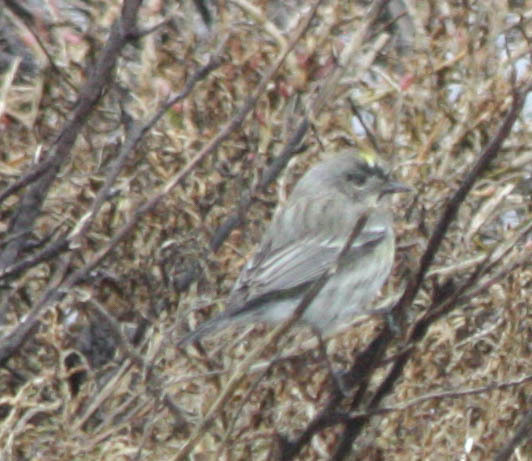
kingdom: Animalia
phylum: Chordata
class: Aves
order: Passeriformes
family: Parulidae
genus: Setophaga
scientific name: Setophaga coronata
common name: Myrtle warbler
